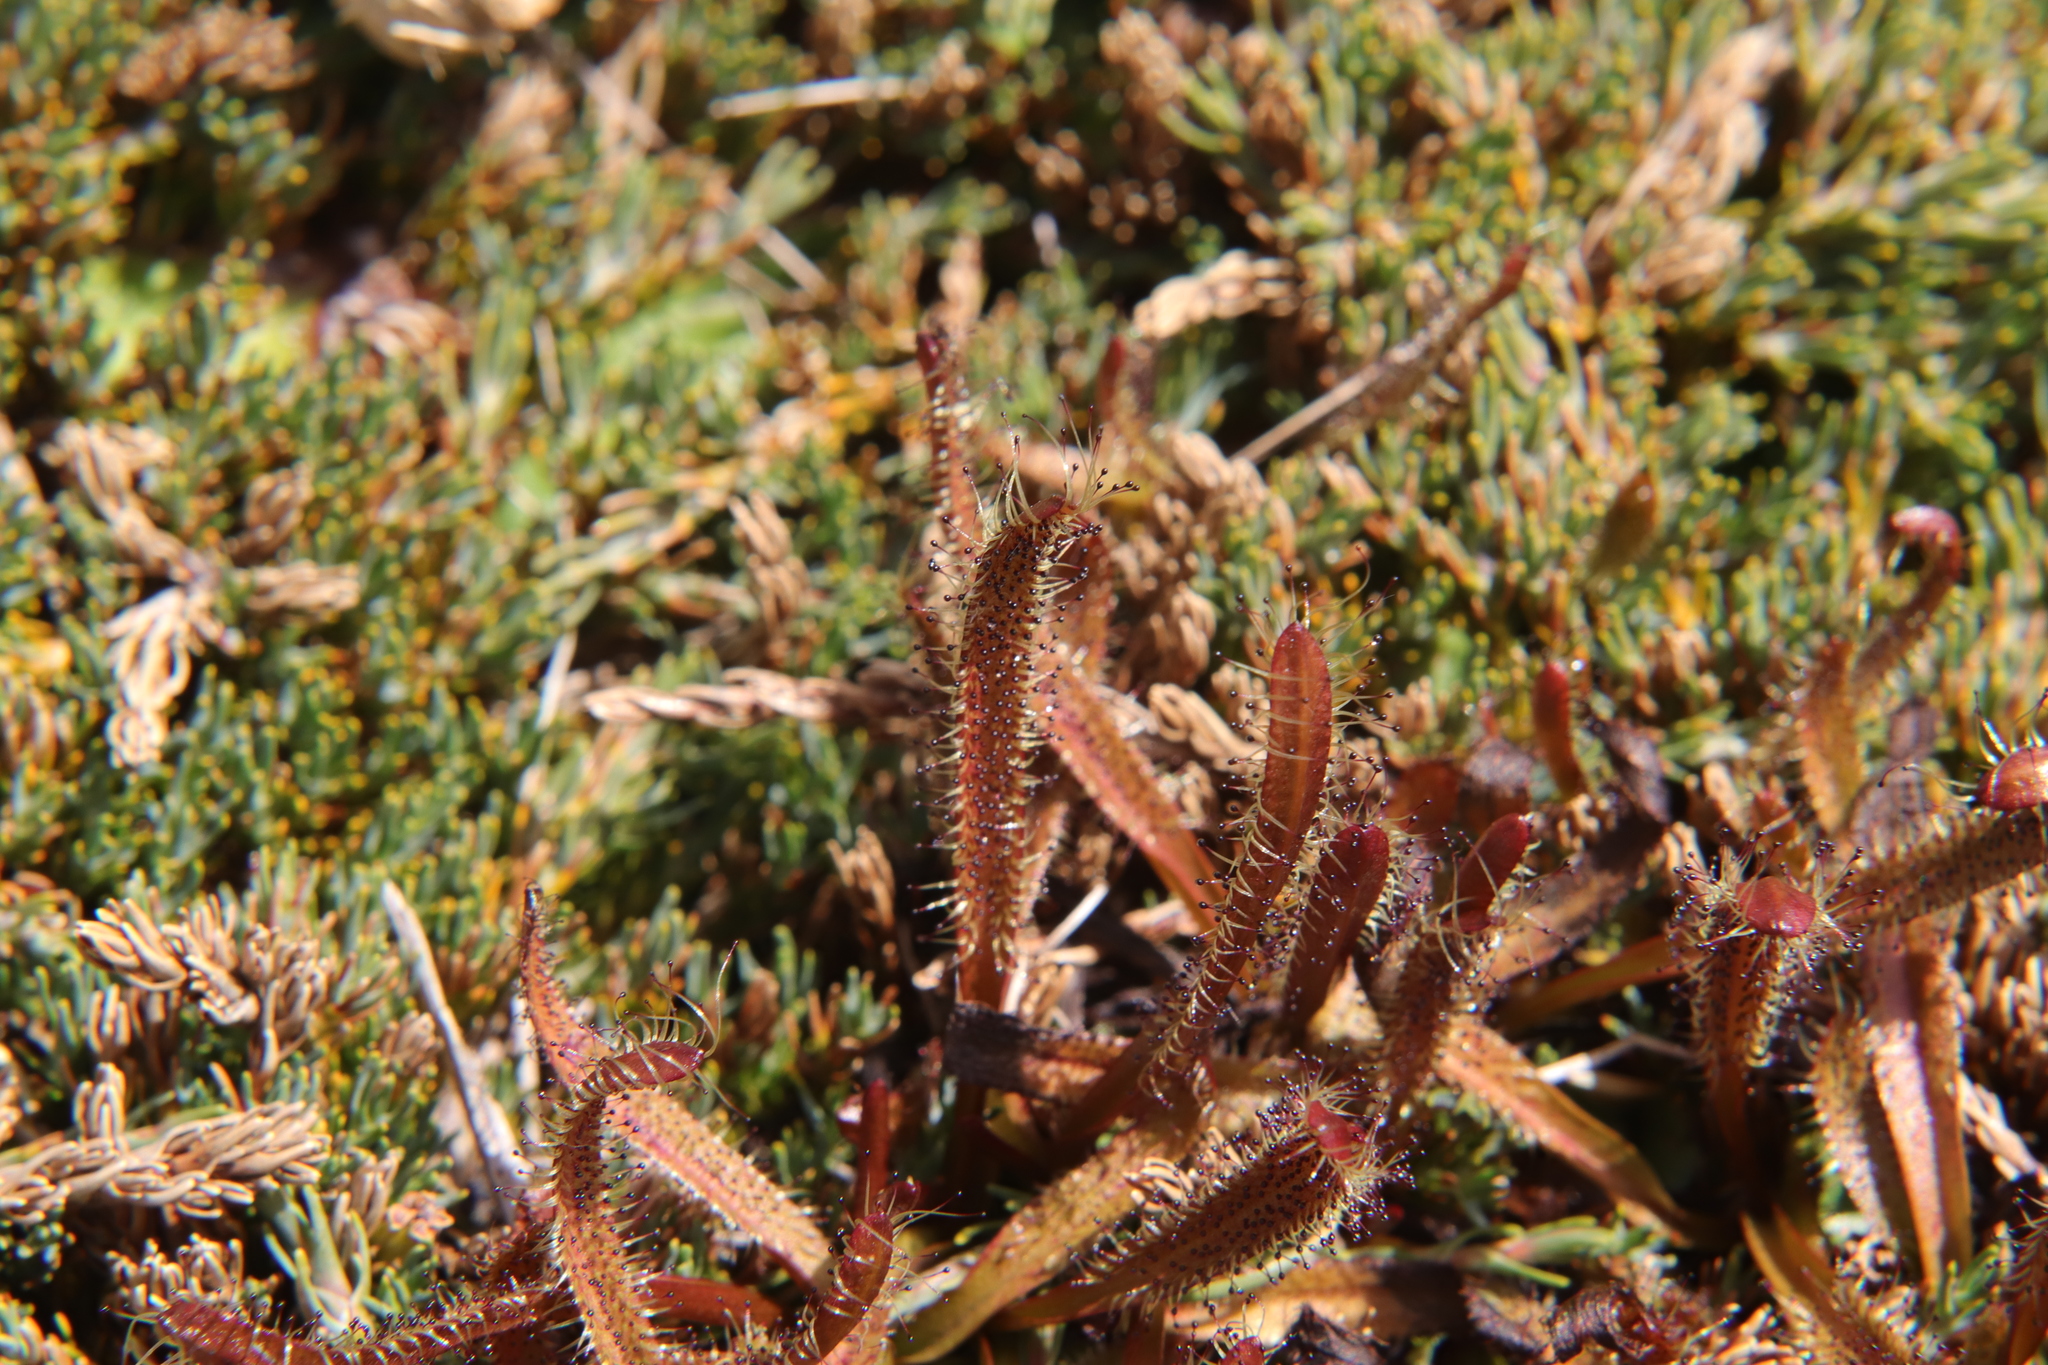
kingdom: Plantae
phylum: Tracheophyta
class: Magnoliopsida
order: Caryophyllales
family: Droseraceae
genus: Drosera
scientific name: Drosera arcturi
